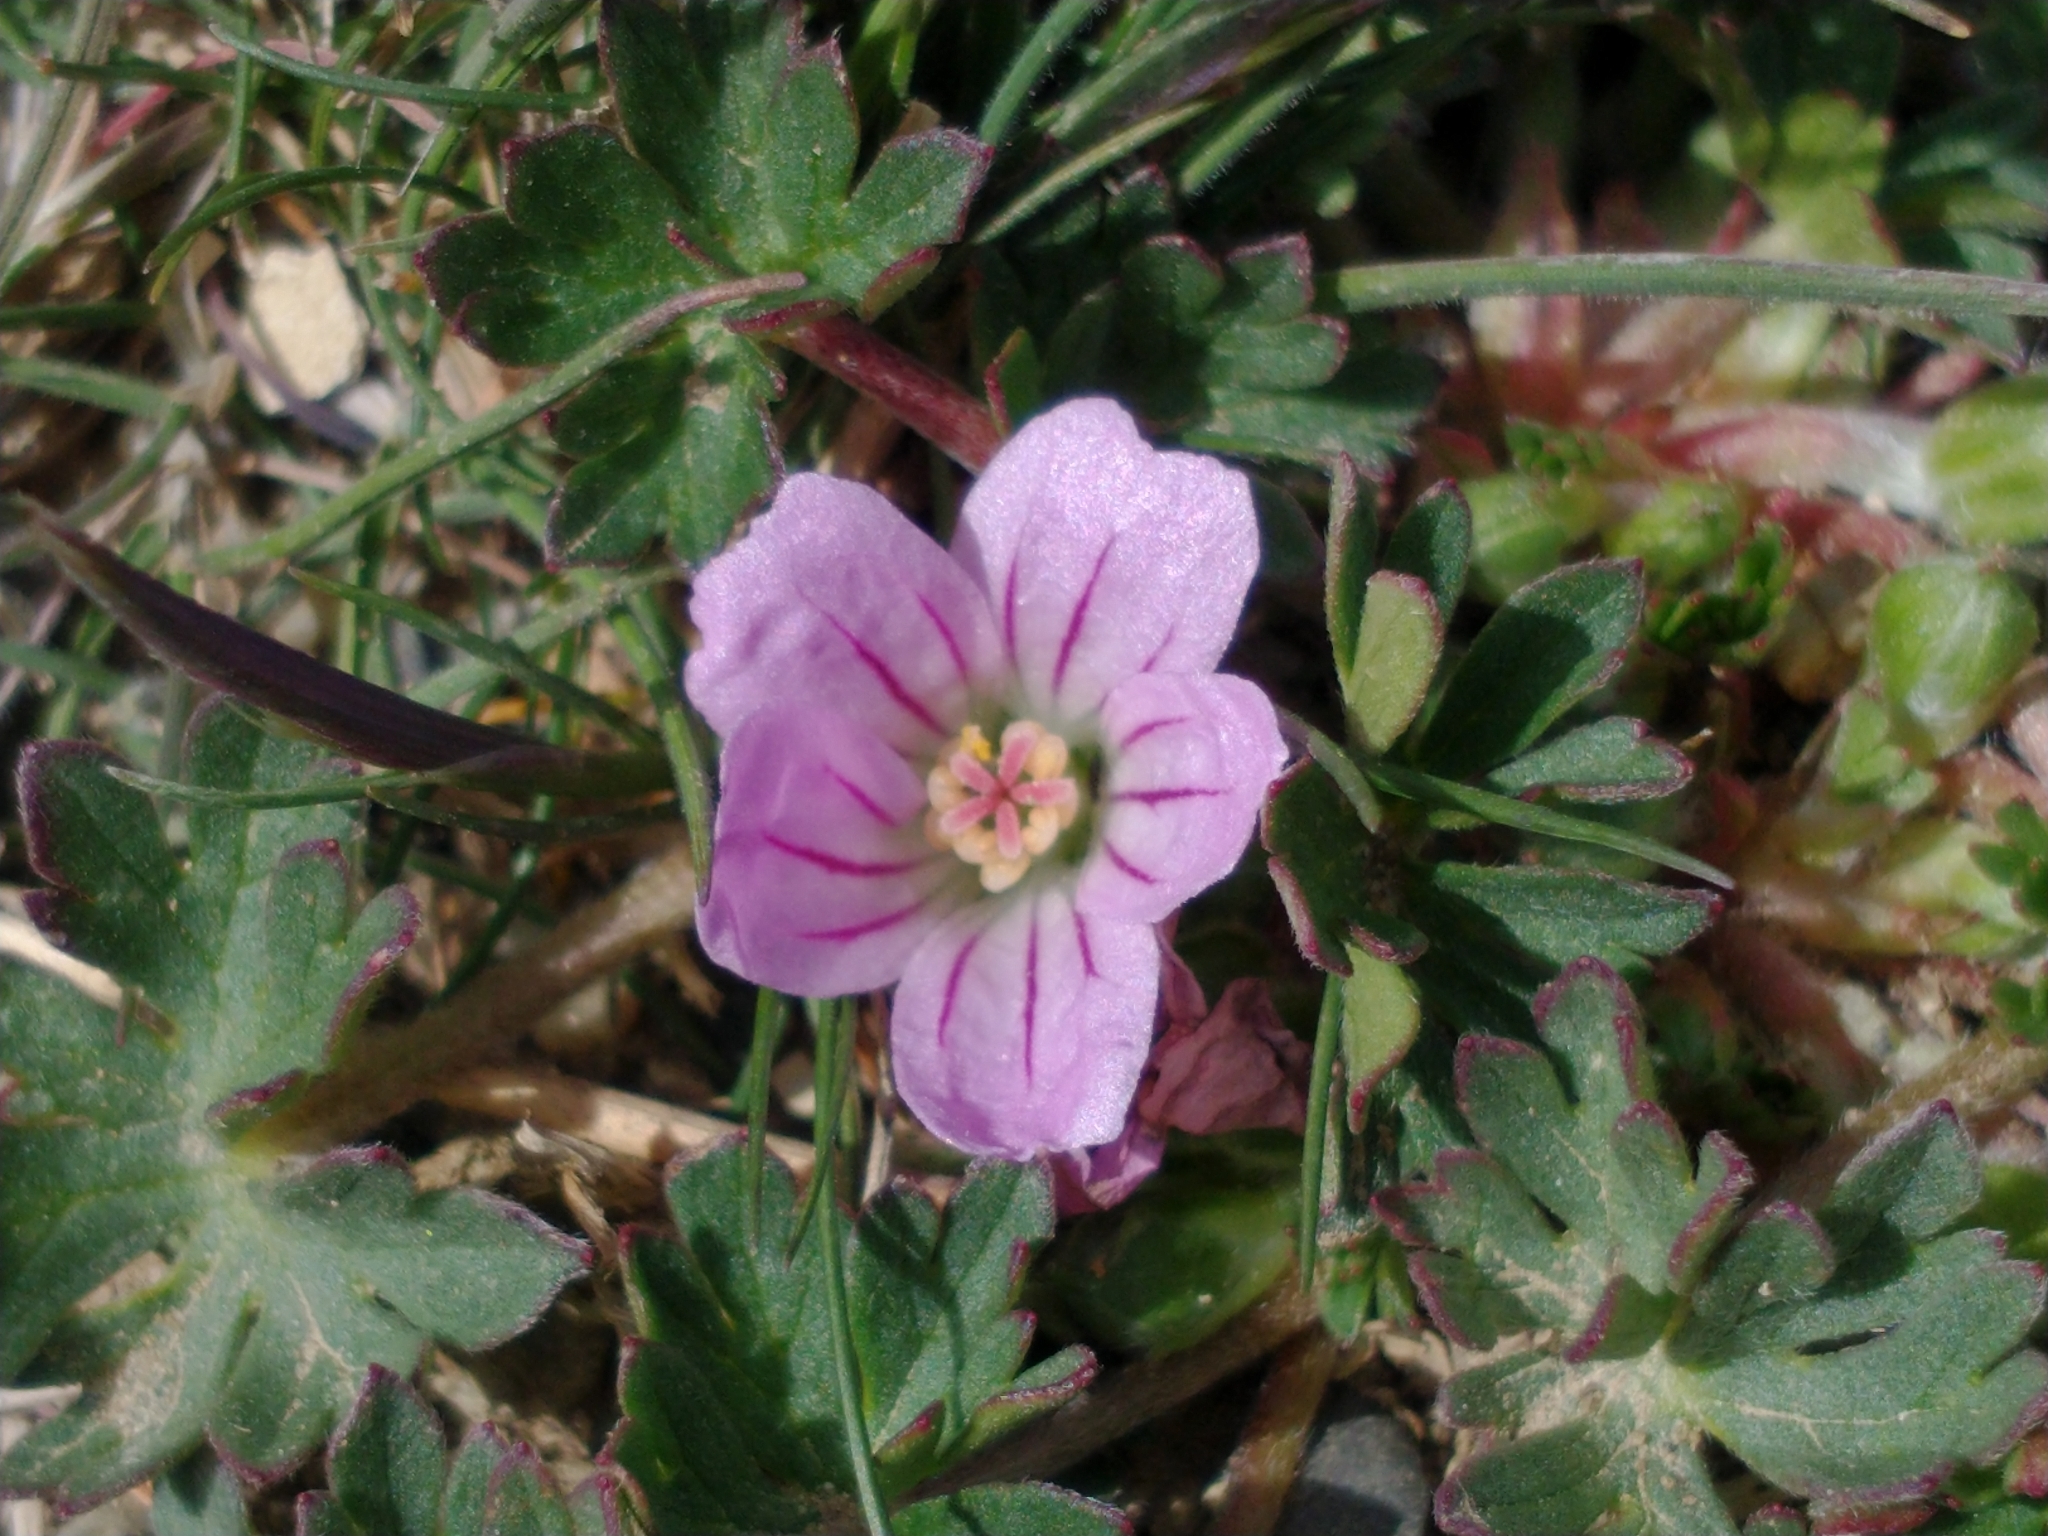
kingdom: Plantae
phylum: Tracheophyta
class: Magnoliopsida
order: Geraniales
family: Geraniaceae
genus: Geranium
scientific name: Geranium magellanicum
